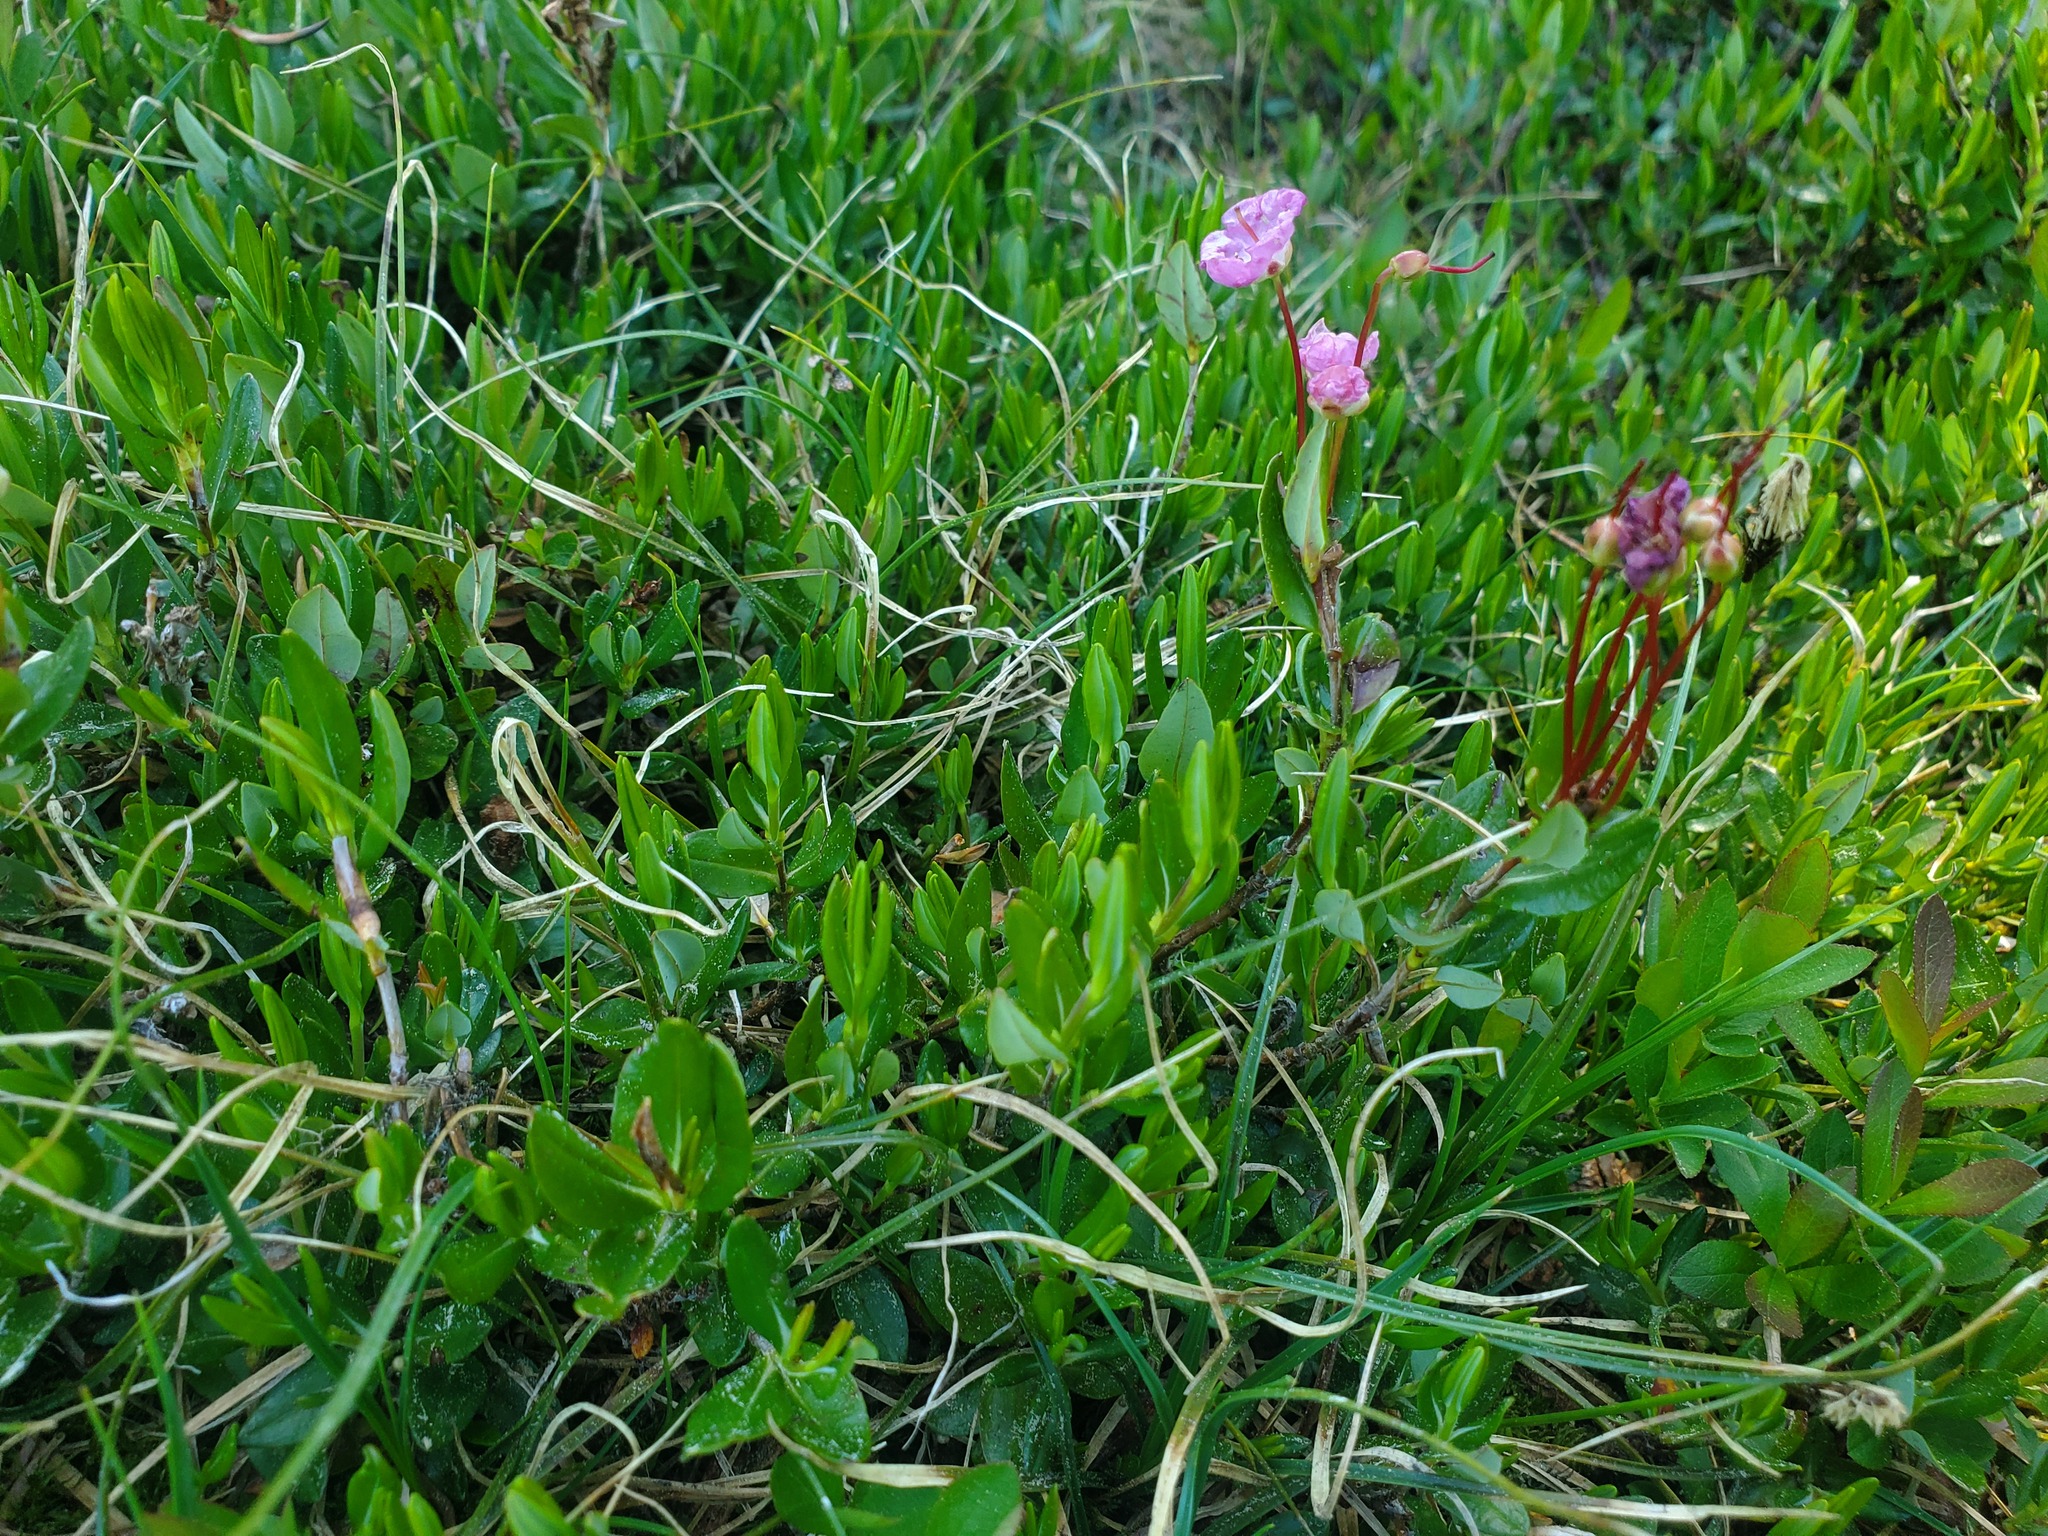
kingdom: Plantae
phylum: Tracheophyta
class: Magnoliopsida
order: Ericales
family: Ericaceae
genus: Kalmia
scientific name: Kalmia microphylla
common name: Alpine bog laurel
